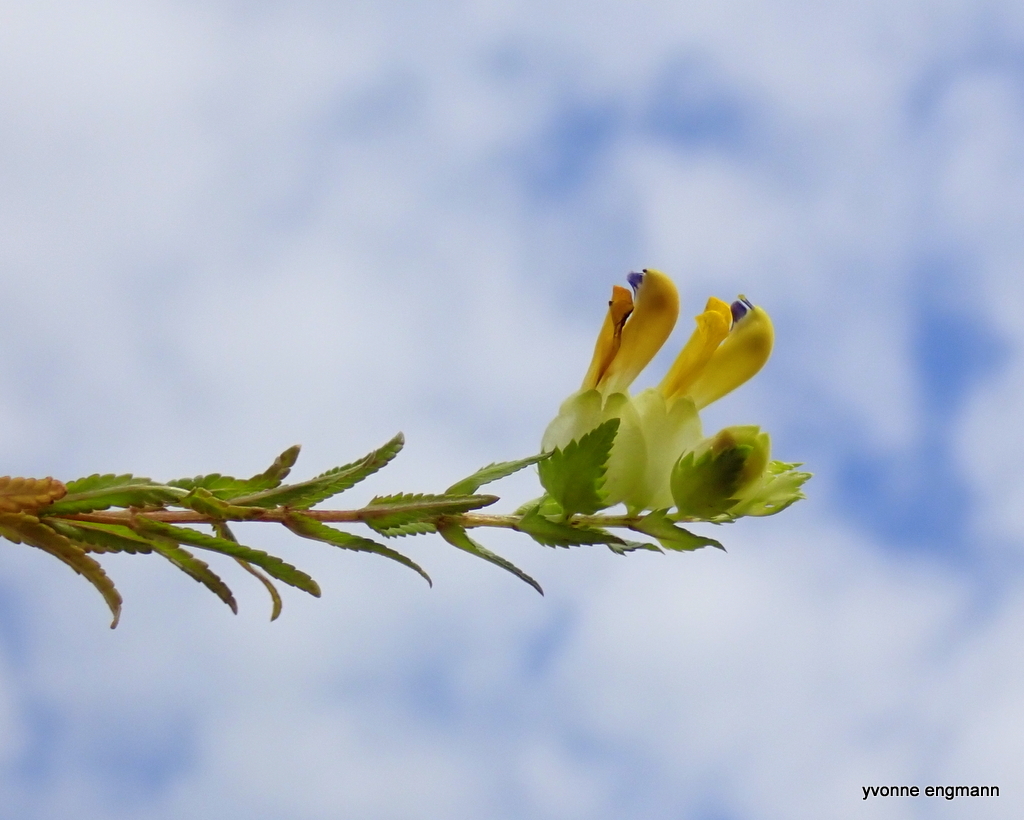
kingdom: Plantae
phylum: Tracheophyta
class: Magnoliopsida
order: Lamiales
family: Orobanchaceae
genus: Rhinanthus
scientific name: Rhinanthus serotinus
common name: Late-flowering yellow rattle
